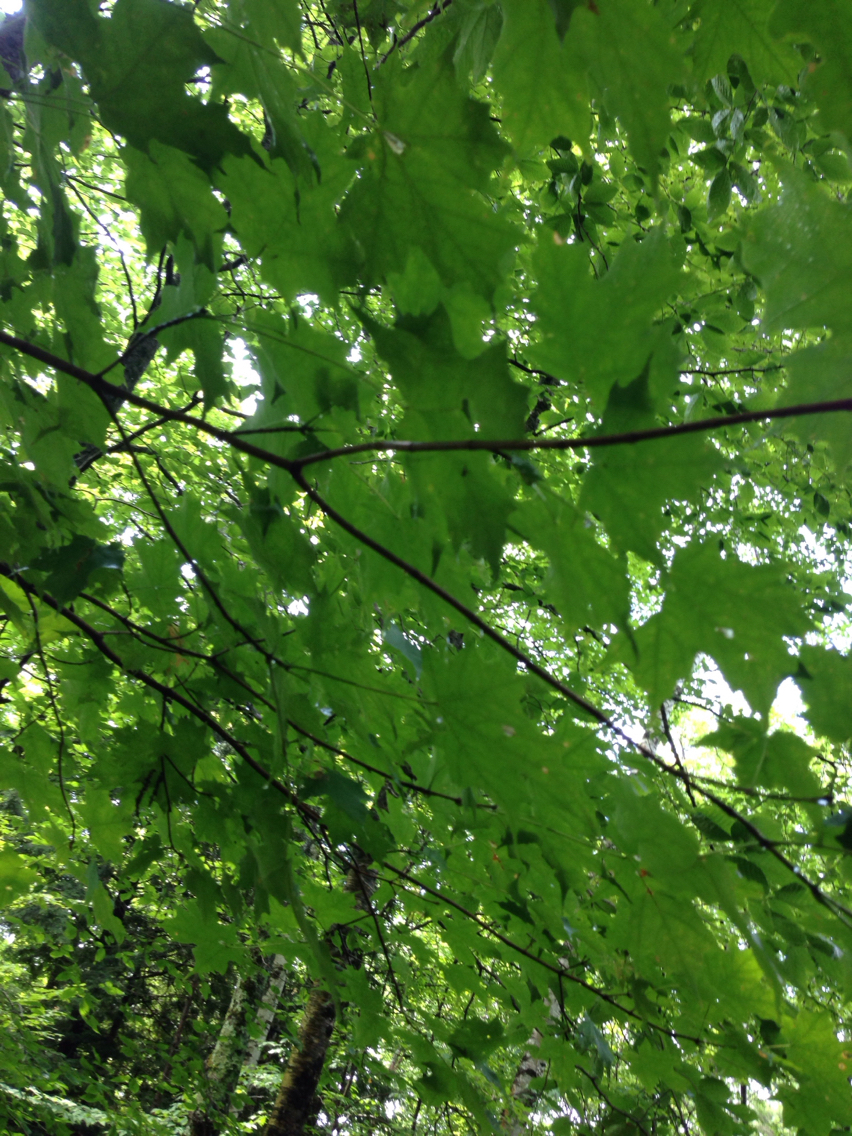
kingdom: Plantae
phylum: Tracheophyta
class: Magnoliopsida
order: Sapindales
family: Sapindaceae
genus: Acer
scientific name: Acer saccharum
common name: Sugar maple
